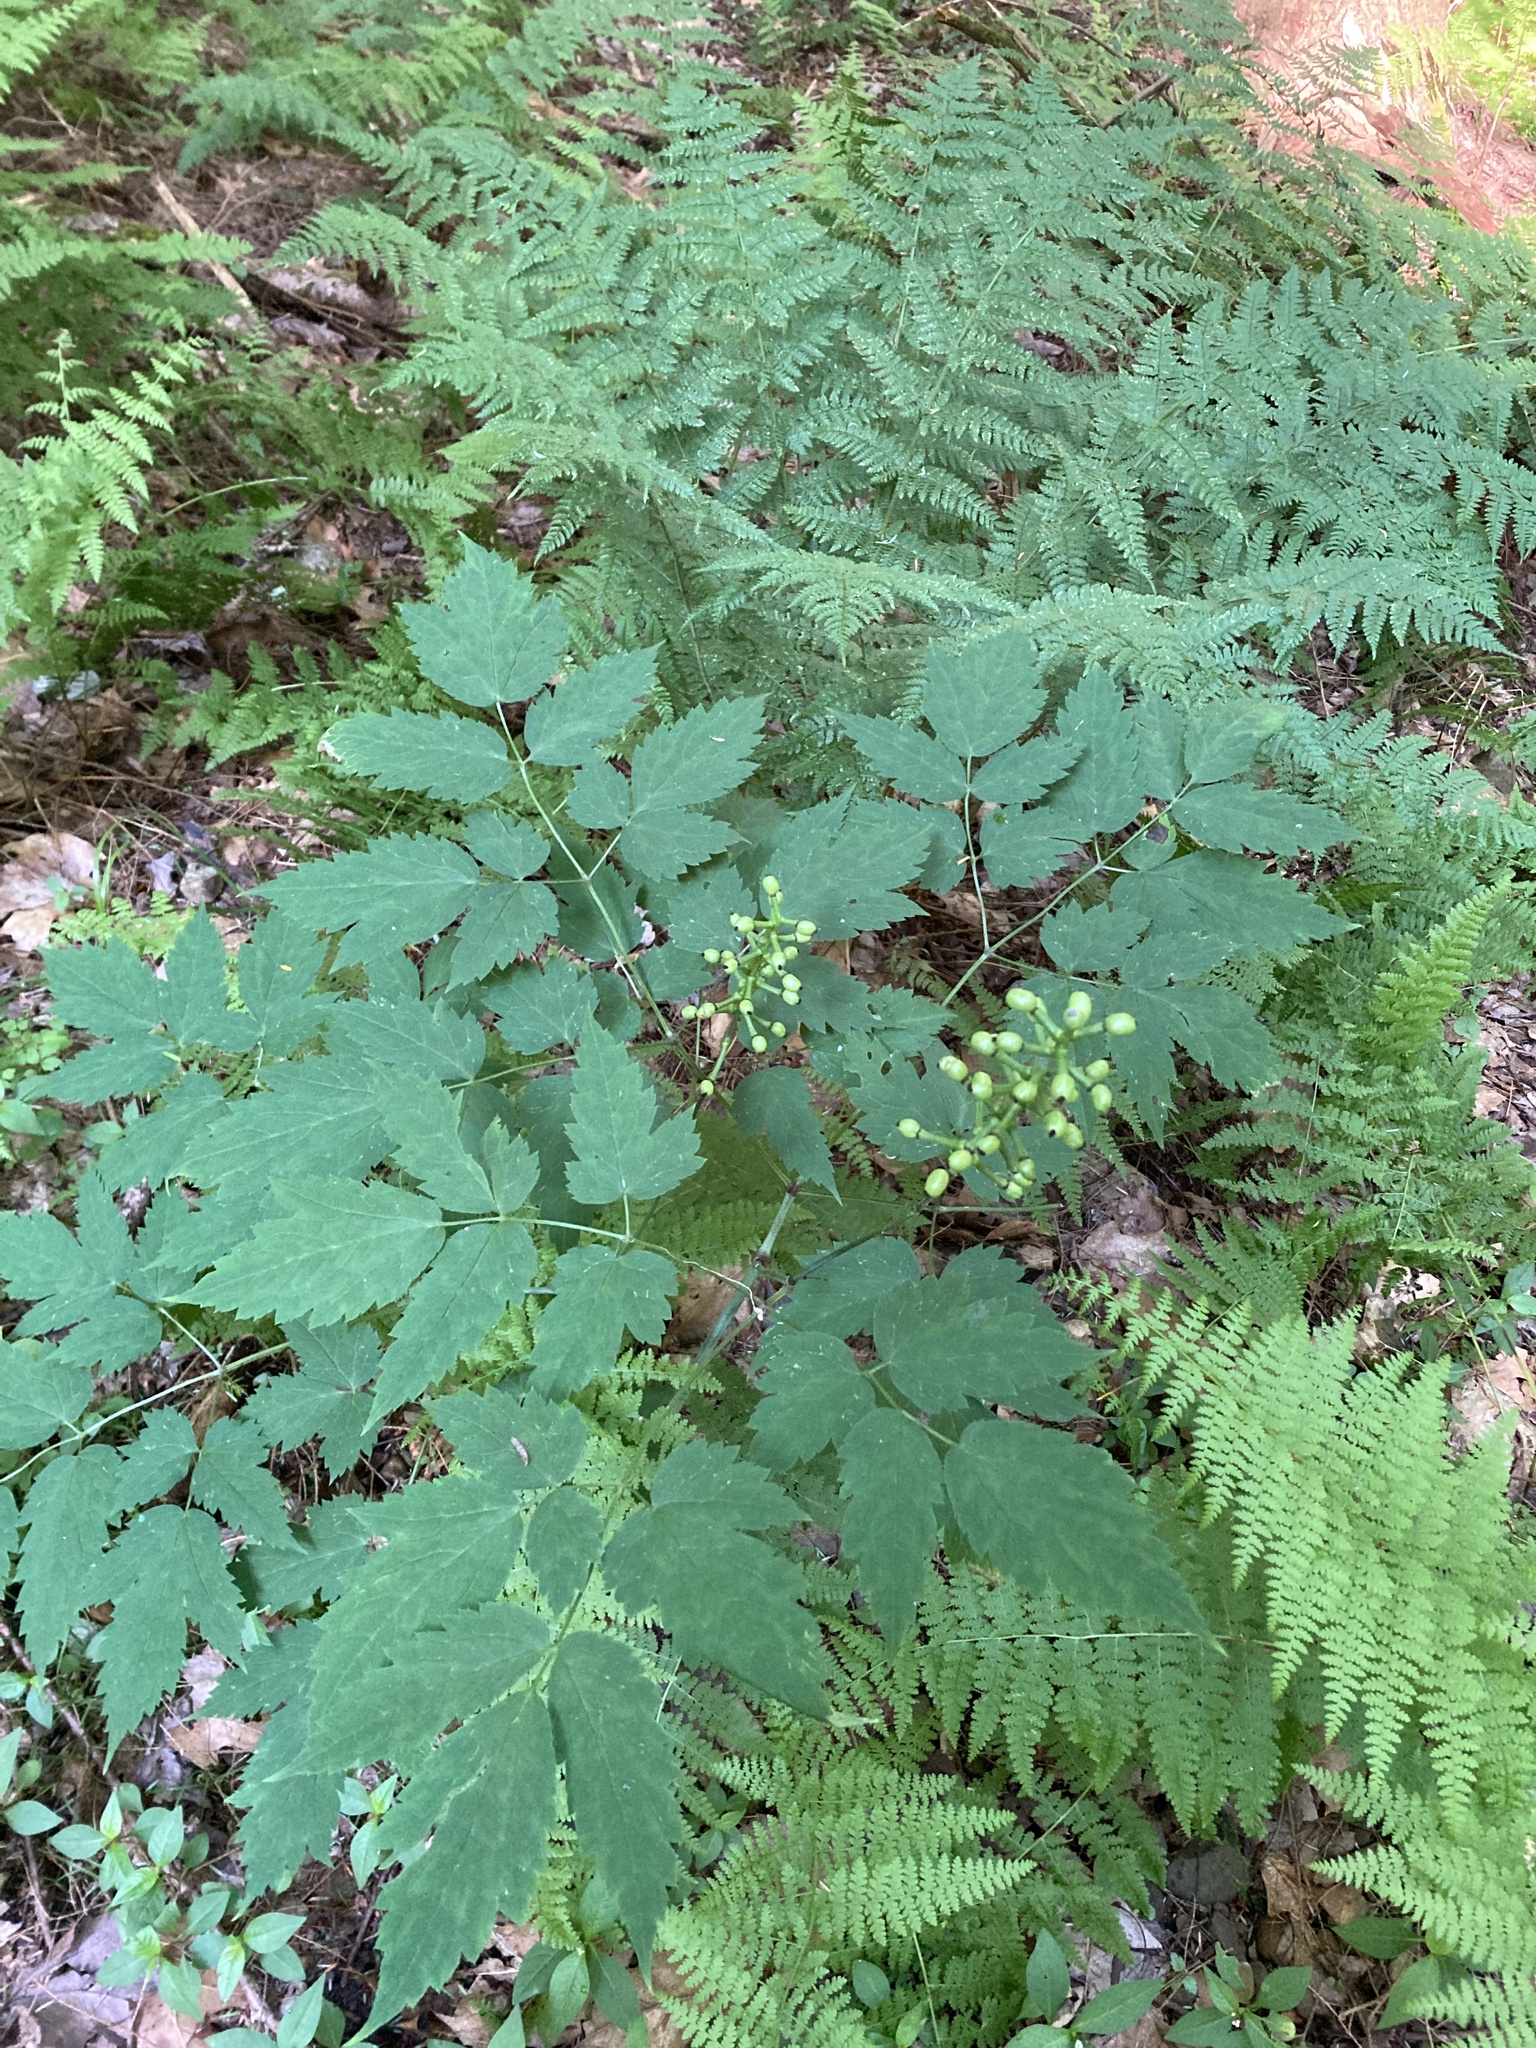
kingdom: Plantae
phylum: Tracheophyta
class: Magnoliopsida
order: Ranunculales
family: Ranunculaceae
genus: Actaea
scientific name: Actaea pachypoda
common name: Doll's-eyes
